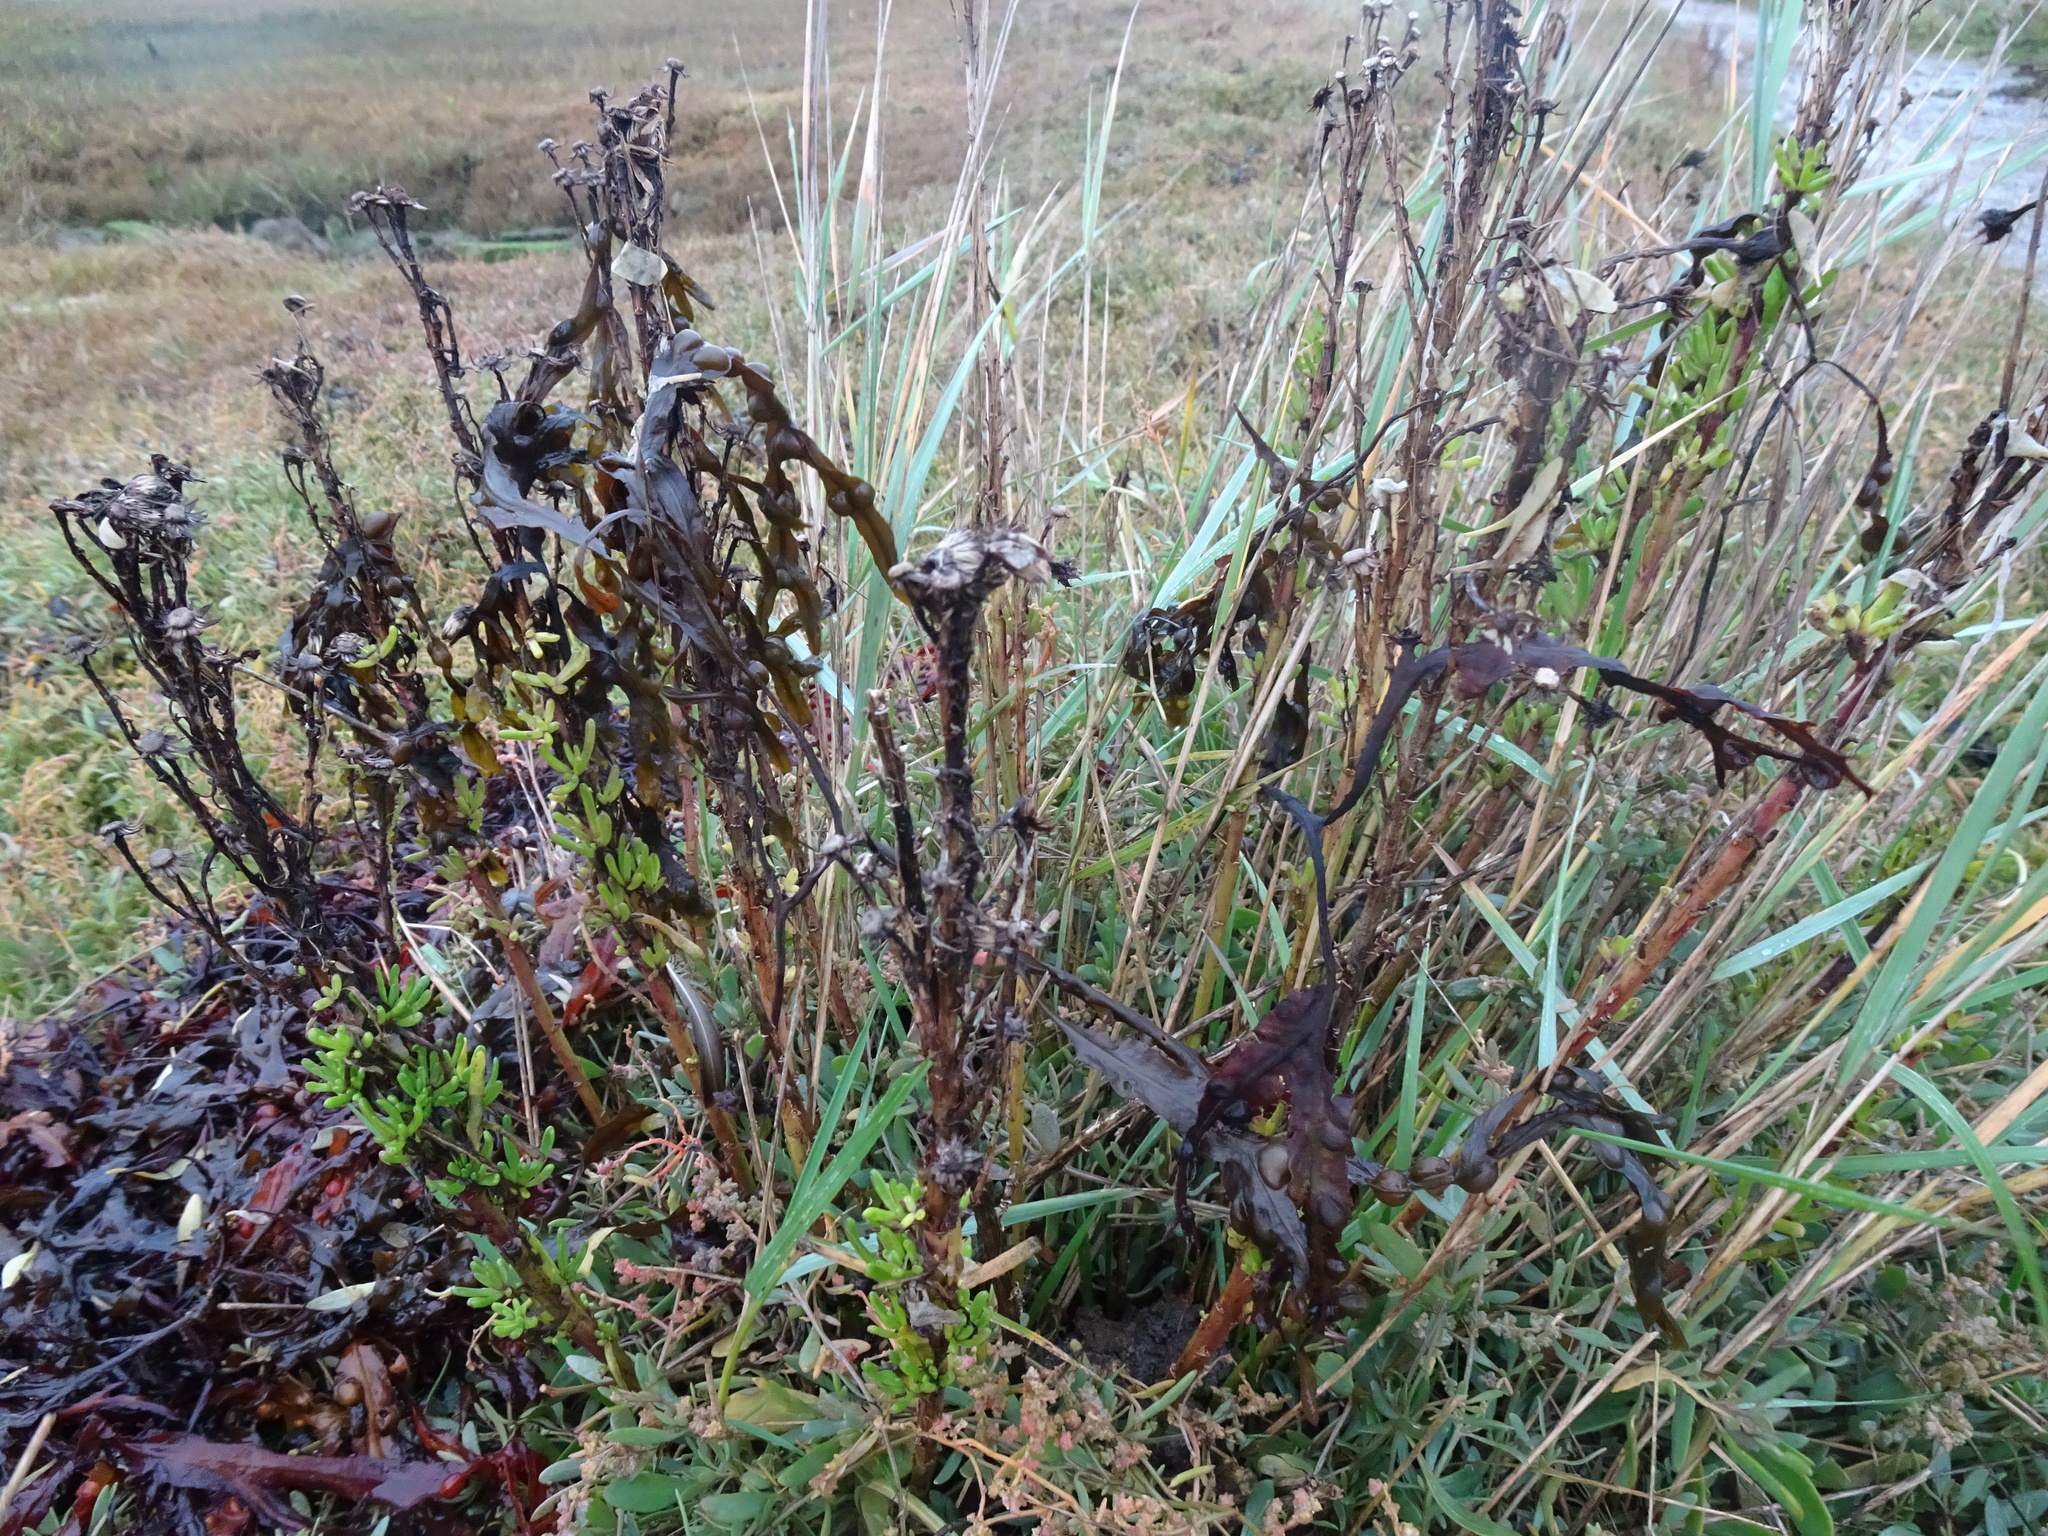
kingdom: Plantae
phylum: Tracheophyta
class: Magnoliopsida
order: Asterales
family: Asteraceae
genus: Limbarda
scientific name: Limbarda crithmoides
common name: Golden samphire
